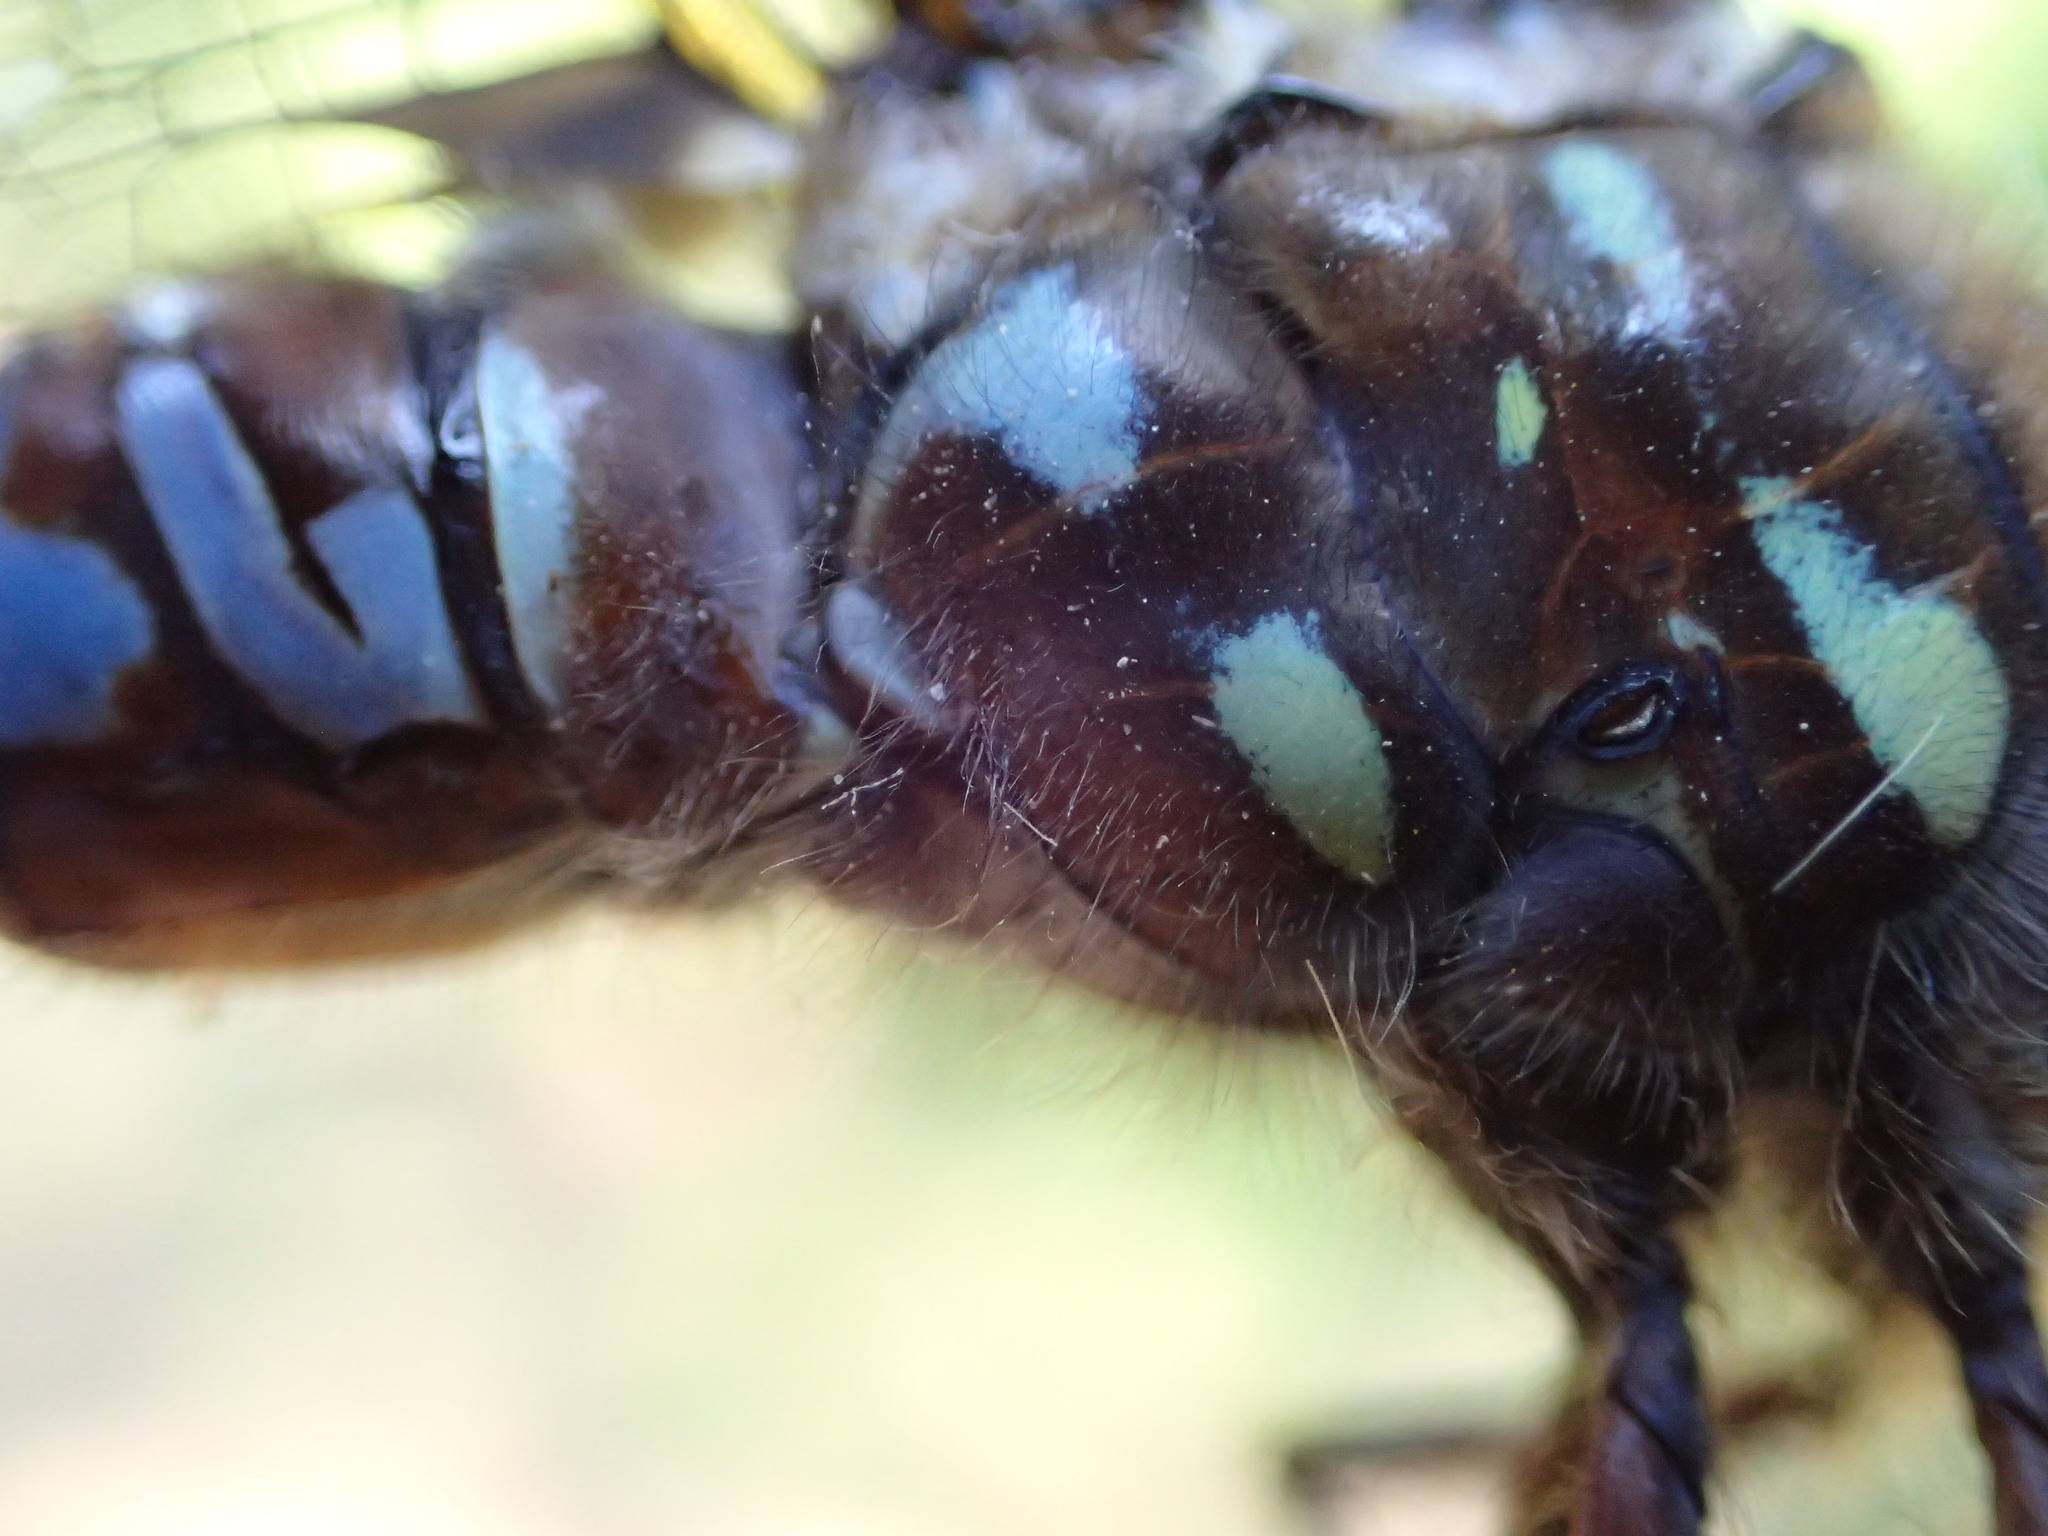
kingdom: Animalia
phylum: Arthropoda
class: Insecta
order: Odonata
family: Aeshnidae
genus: Aeshna
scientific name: Aeshna interrupta
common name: Variable darner
